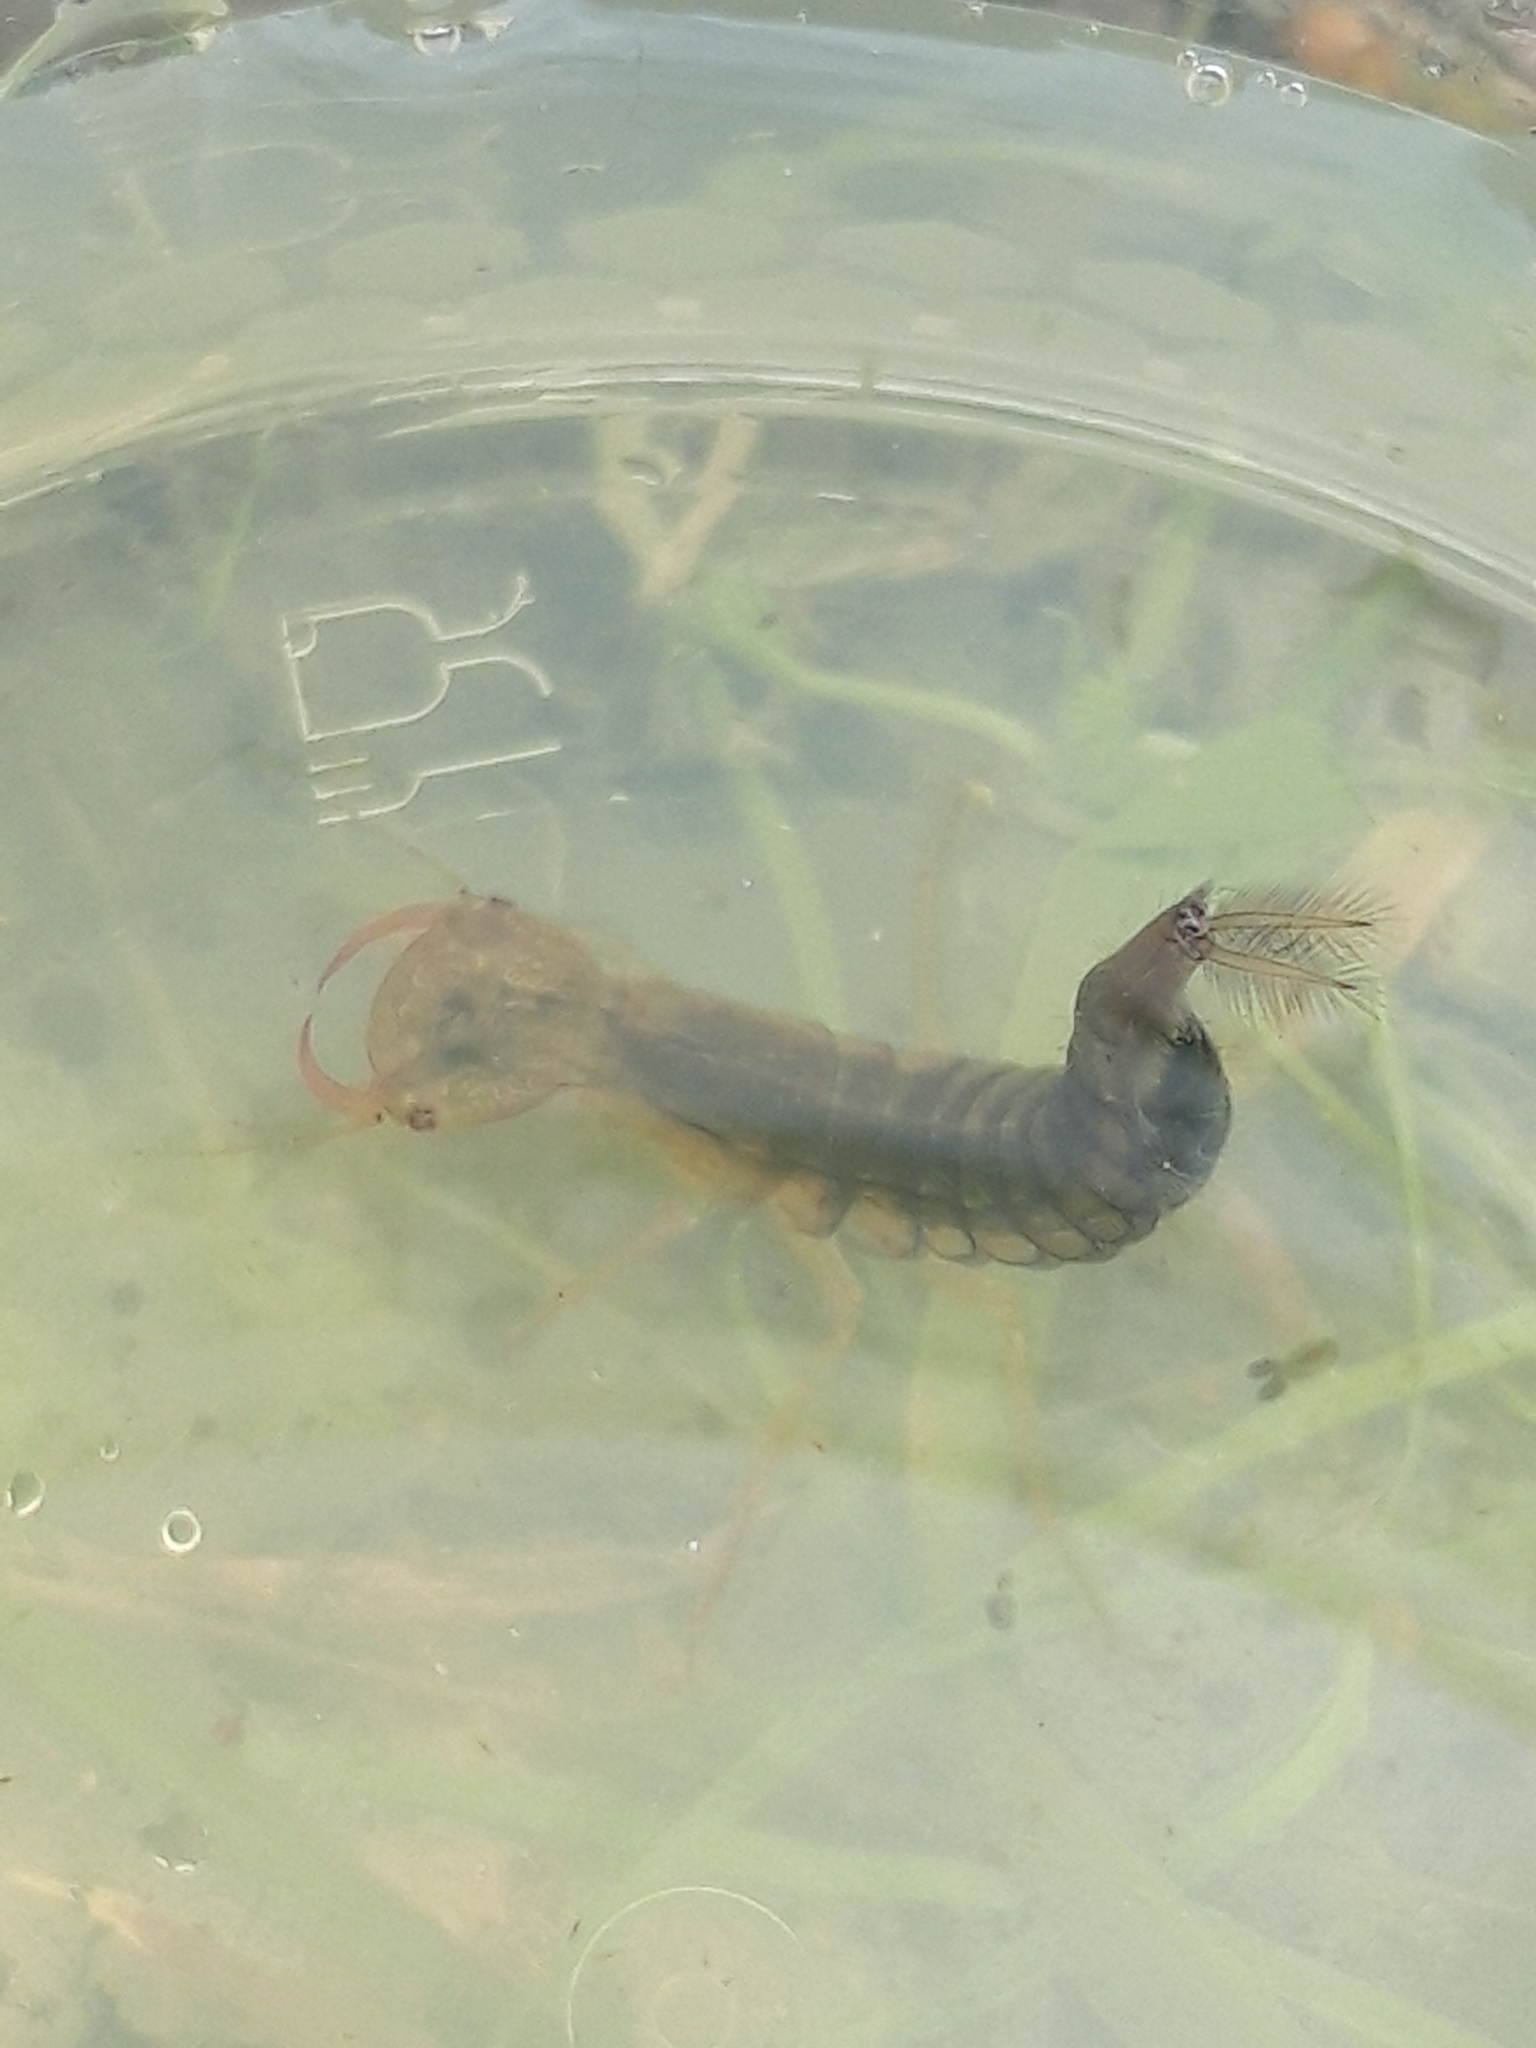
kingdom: Animalia
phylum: Arthropoda
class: Insecta
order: Coleoptera
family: Dytiscidae
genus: Dytiscus
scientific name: Dytiscus
